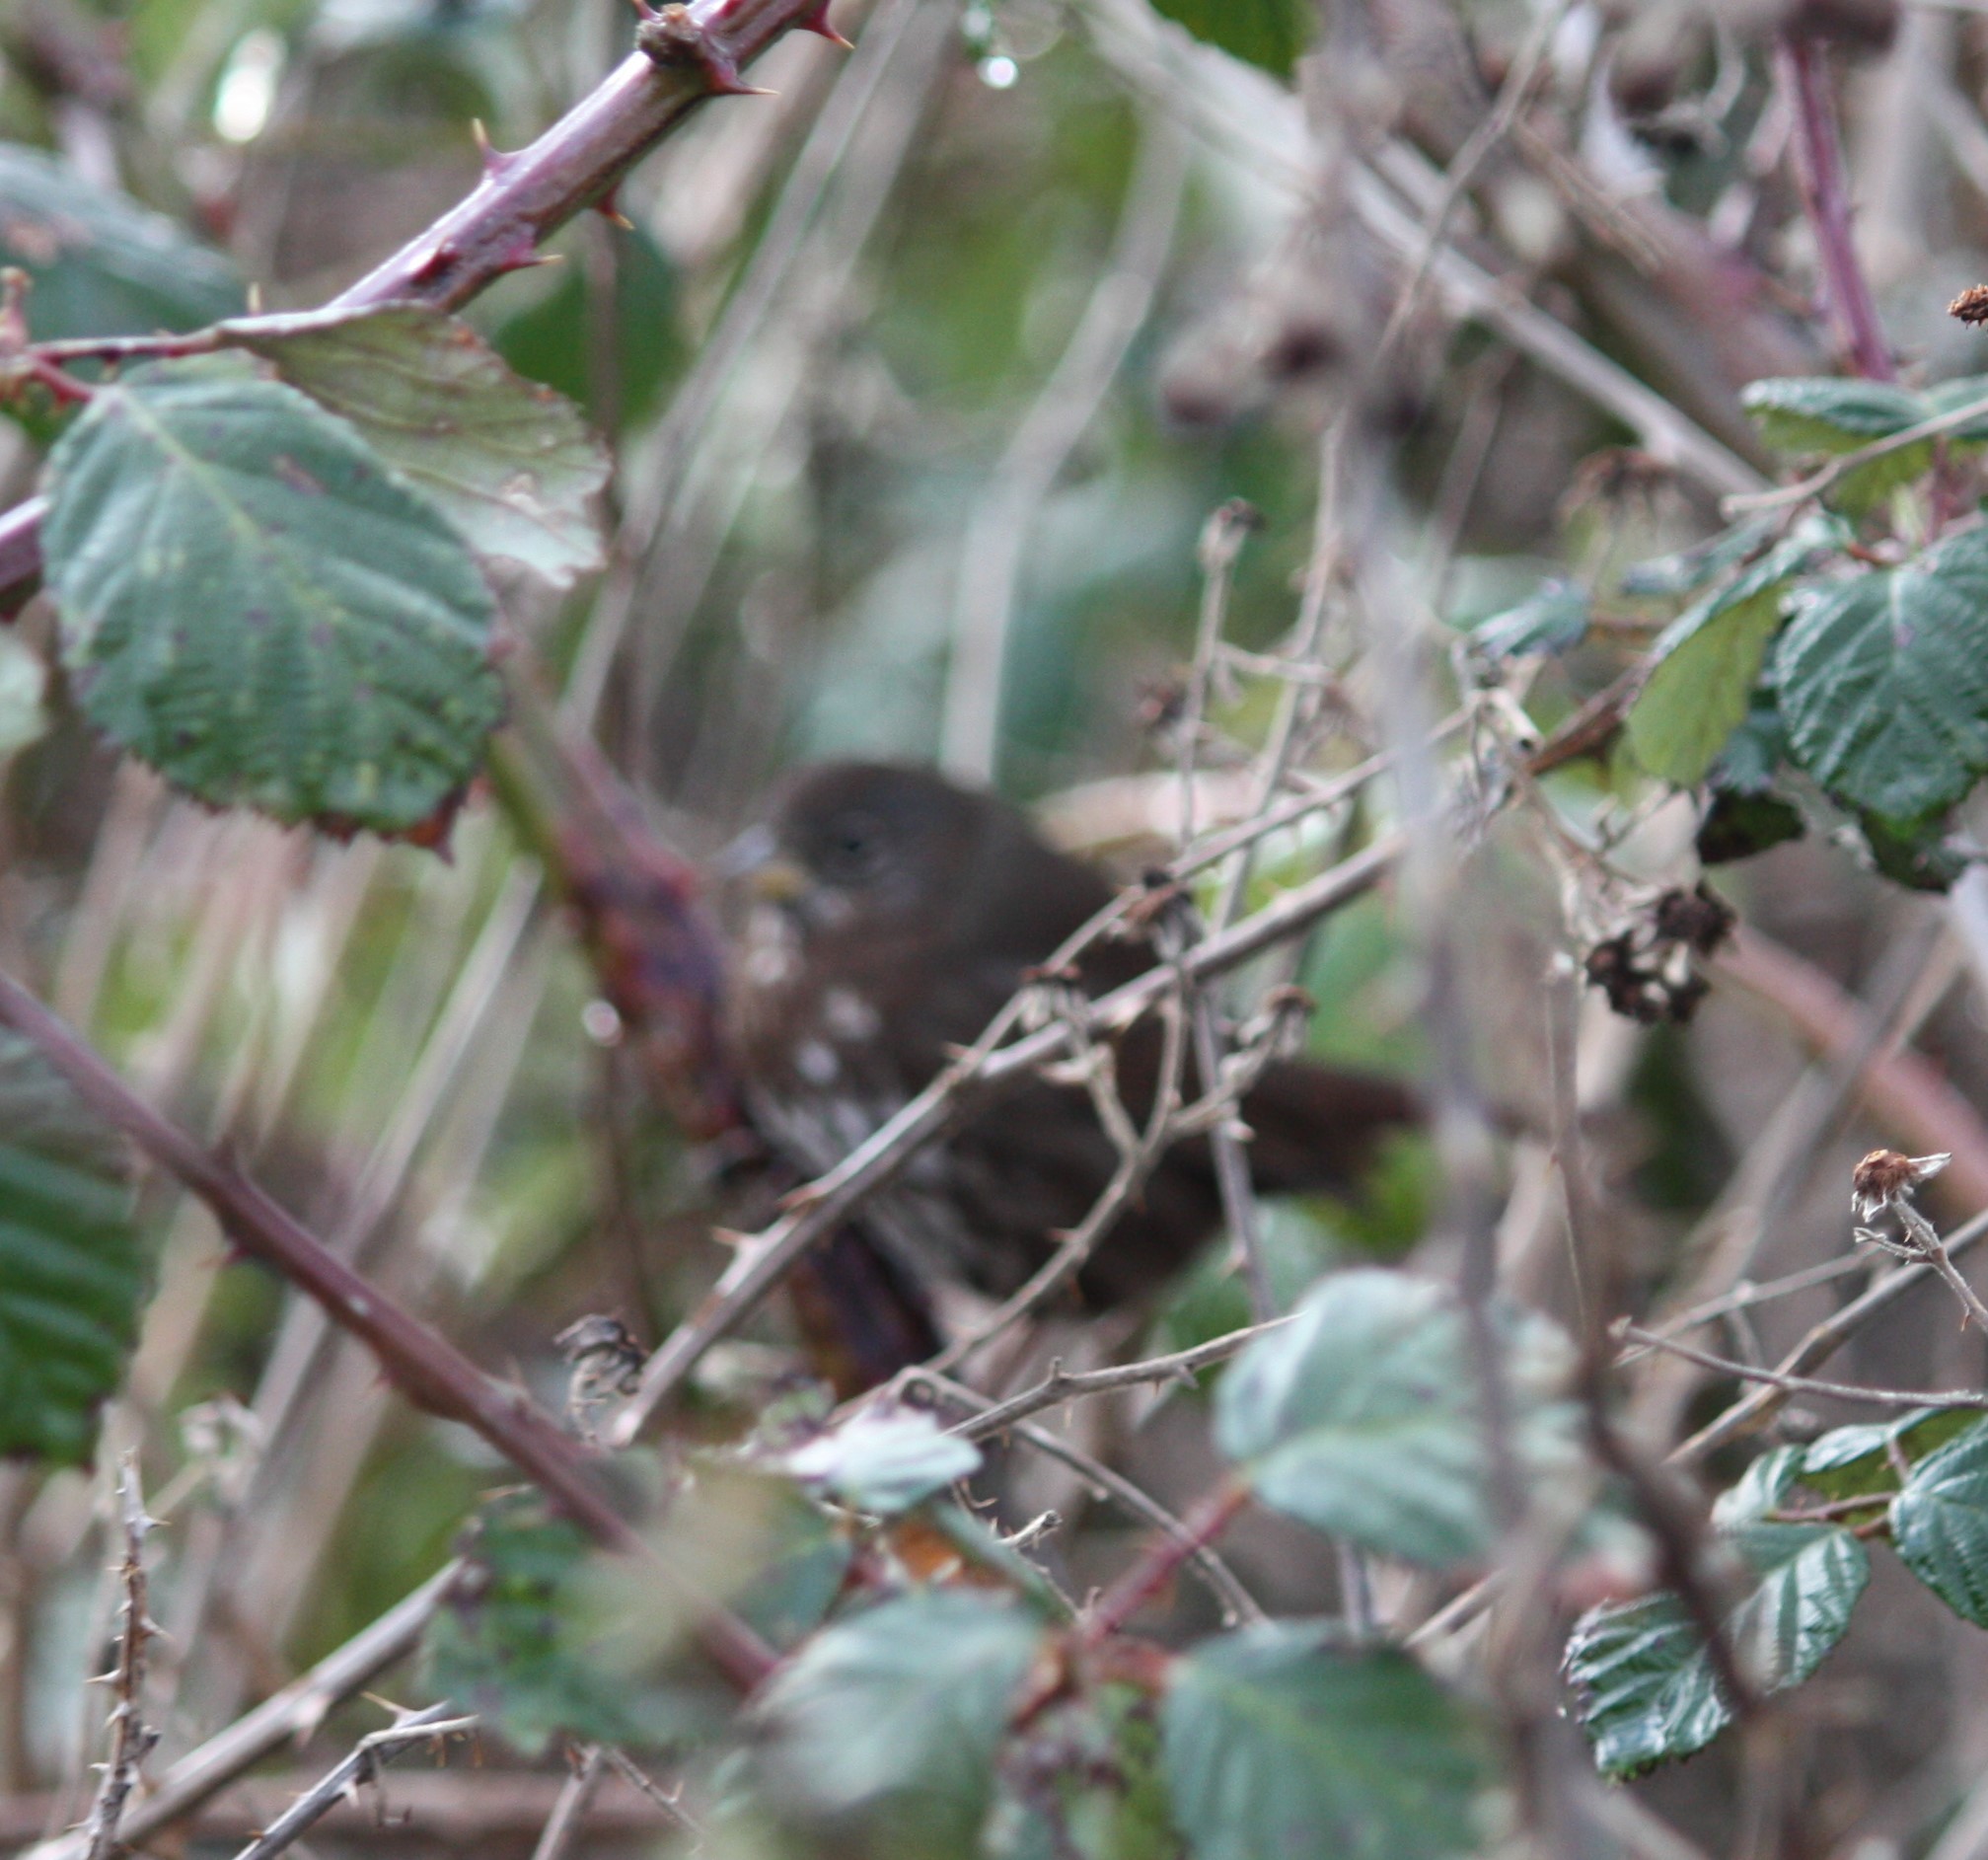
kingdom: Animalia
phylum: Chordata
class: Aves
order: Passeriformes
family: Passerellidae
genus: Passerella
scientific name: Passerella iliaca
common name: Fox sparrow
